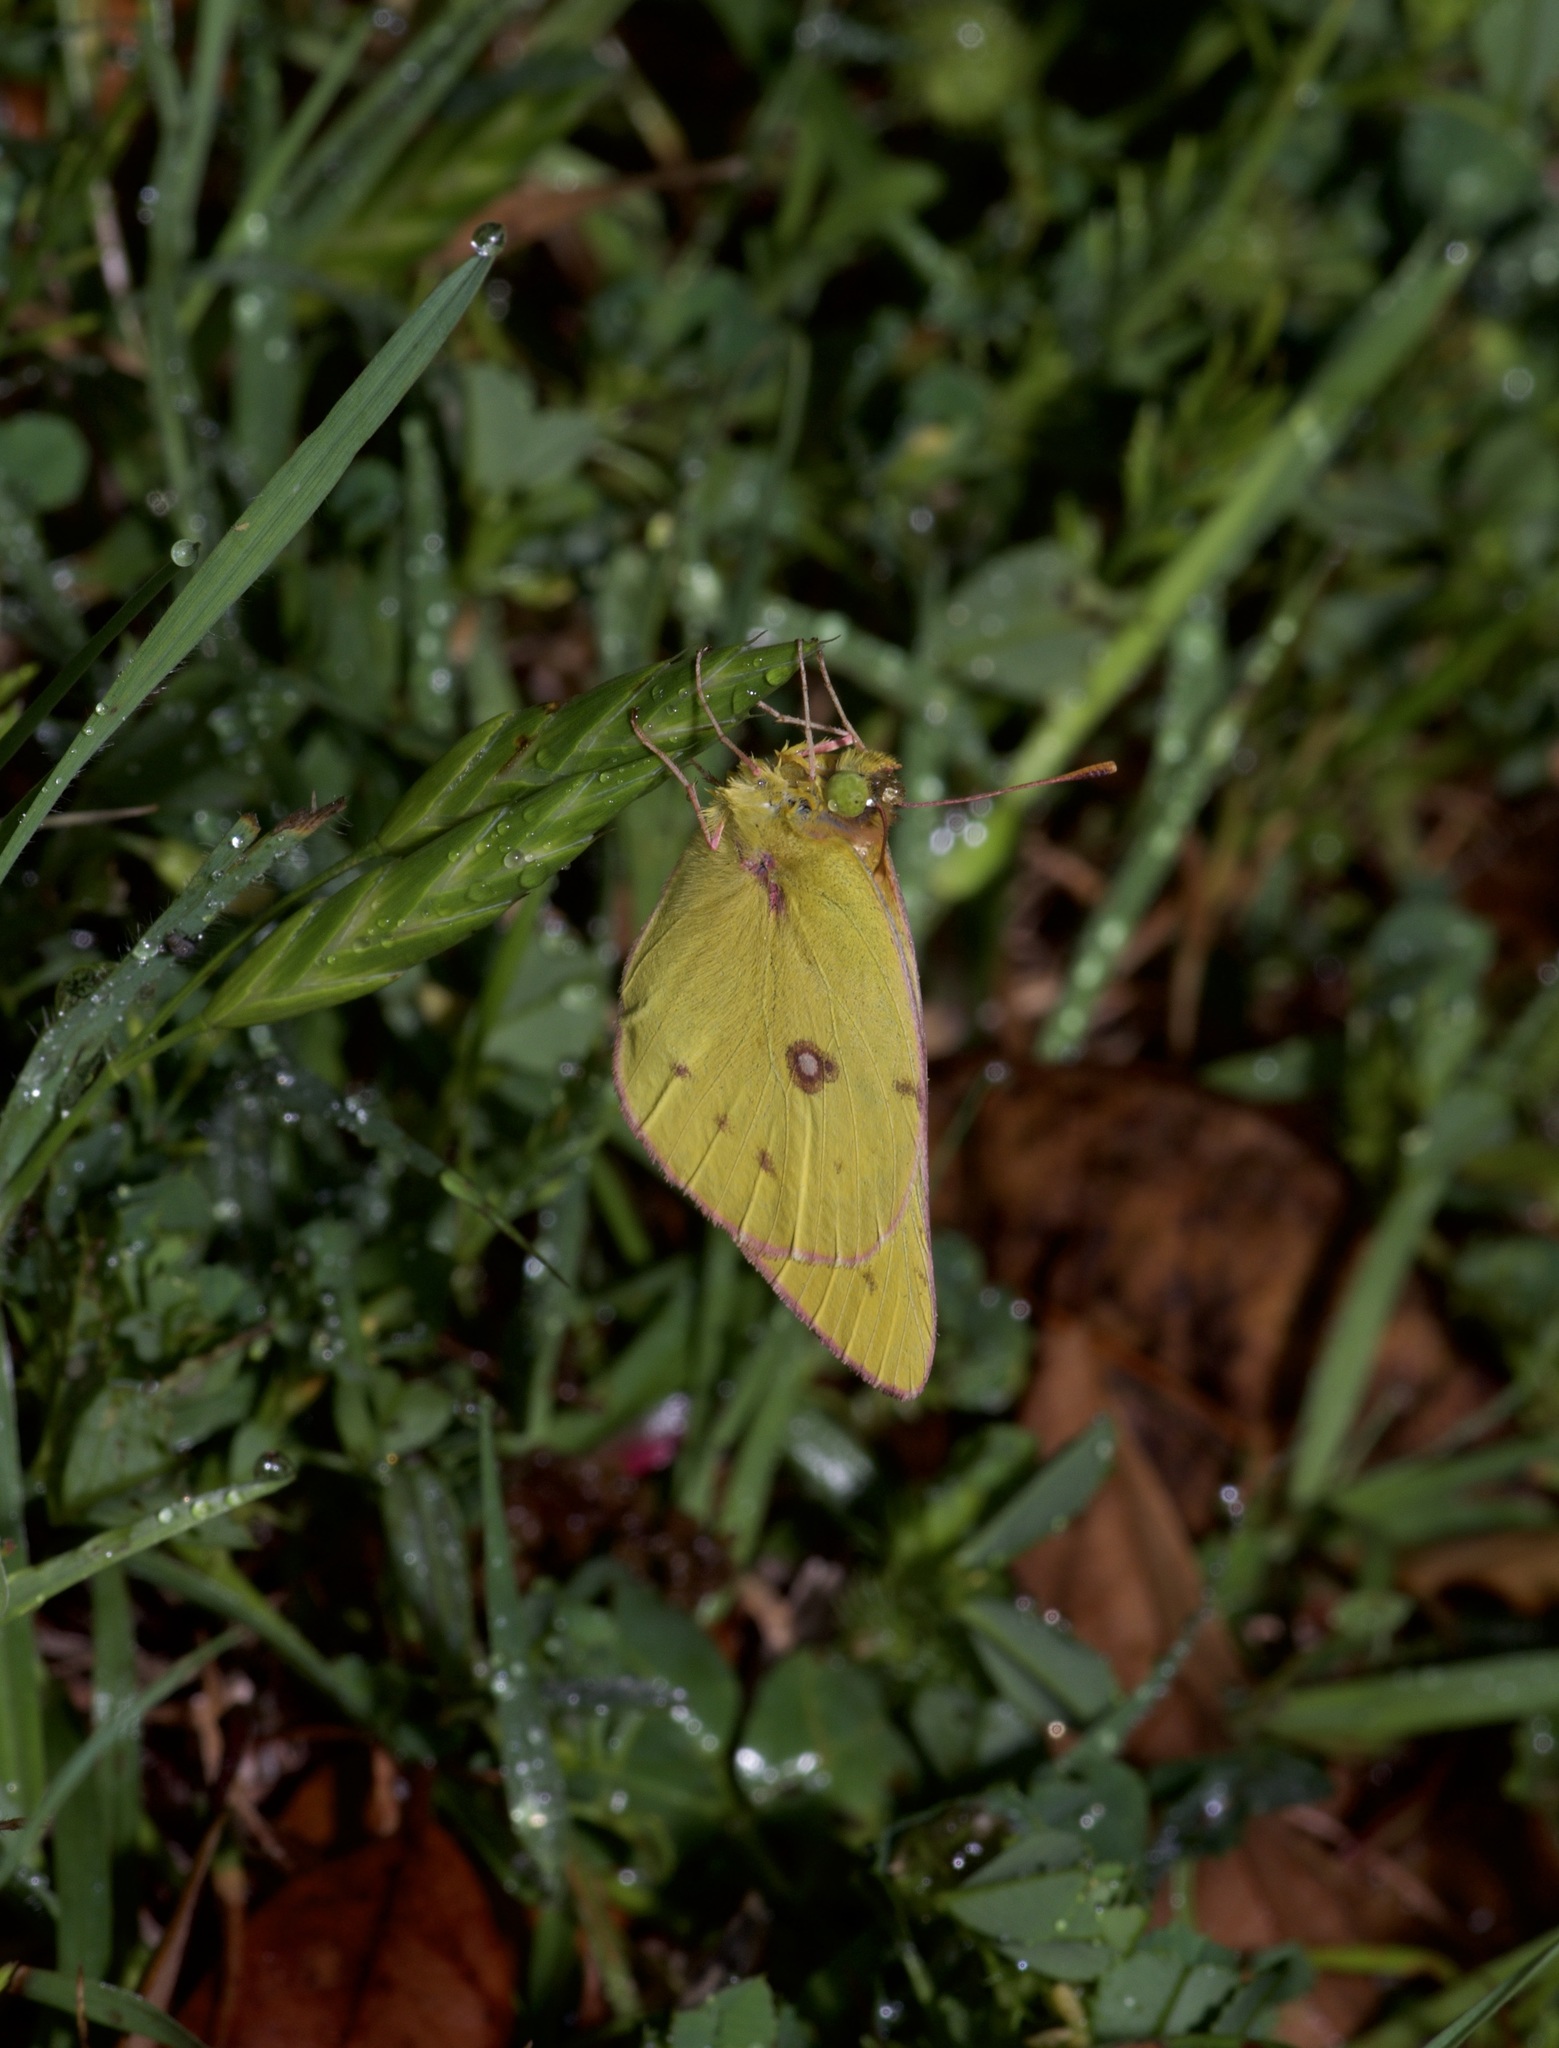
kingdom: Animalia
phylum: Arthropoda
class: Insecta
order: Lepidoptera
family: Pieridae
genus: Colias
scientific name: Colias eurytheme
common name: Alfalfa butterfly
